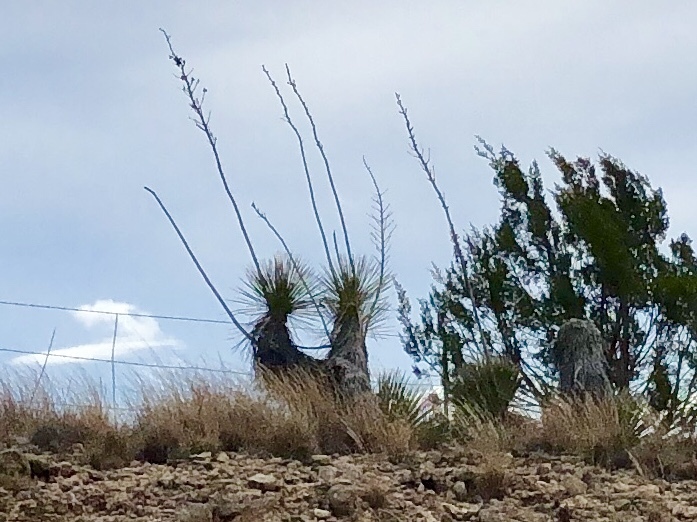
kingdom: Plantae
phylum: Tracheophyta
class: Liliopsida
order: Asparagales
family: Asparagaceae
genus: Yucca
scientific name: Yucca elata
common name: Palmella
